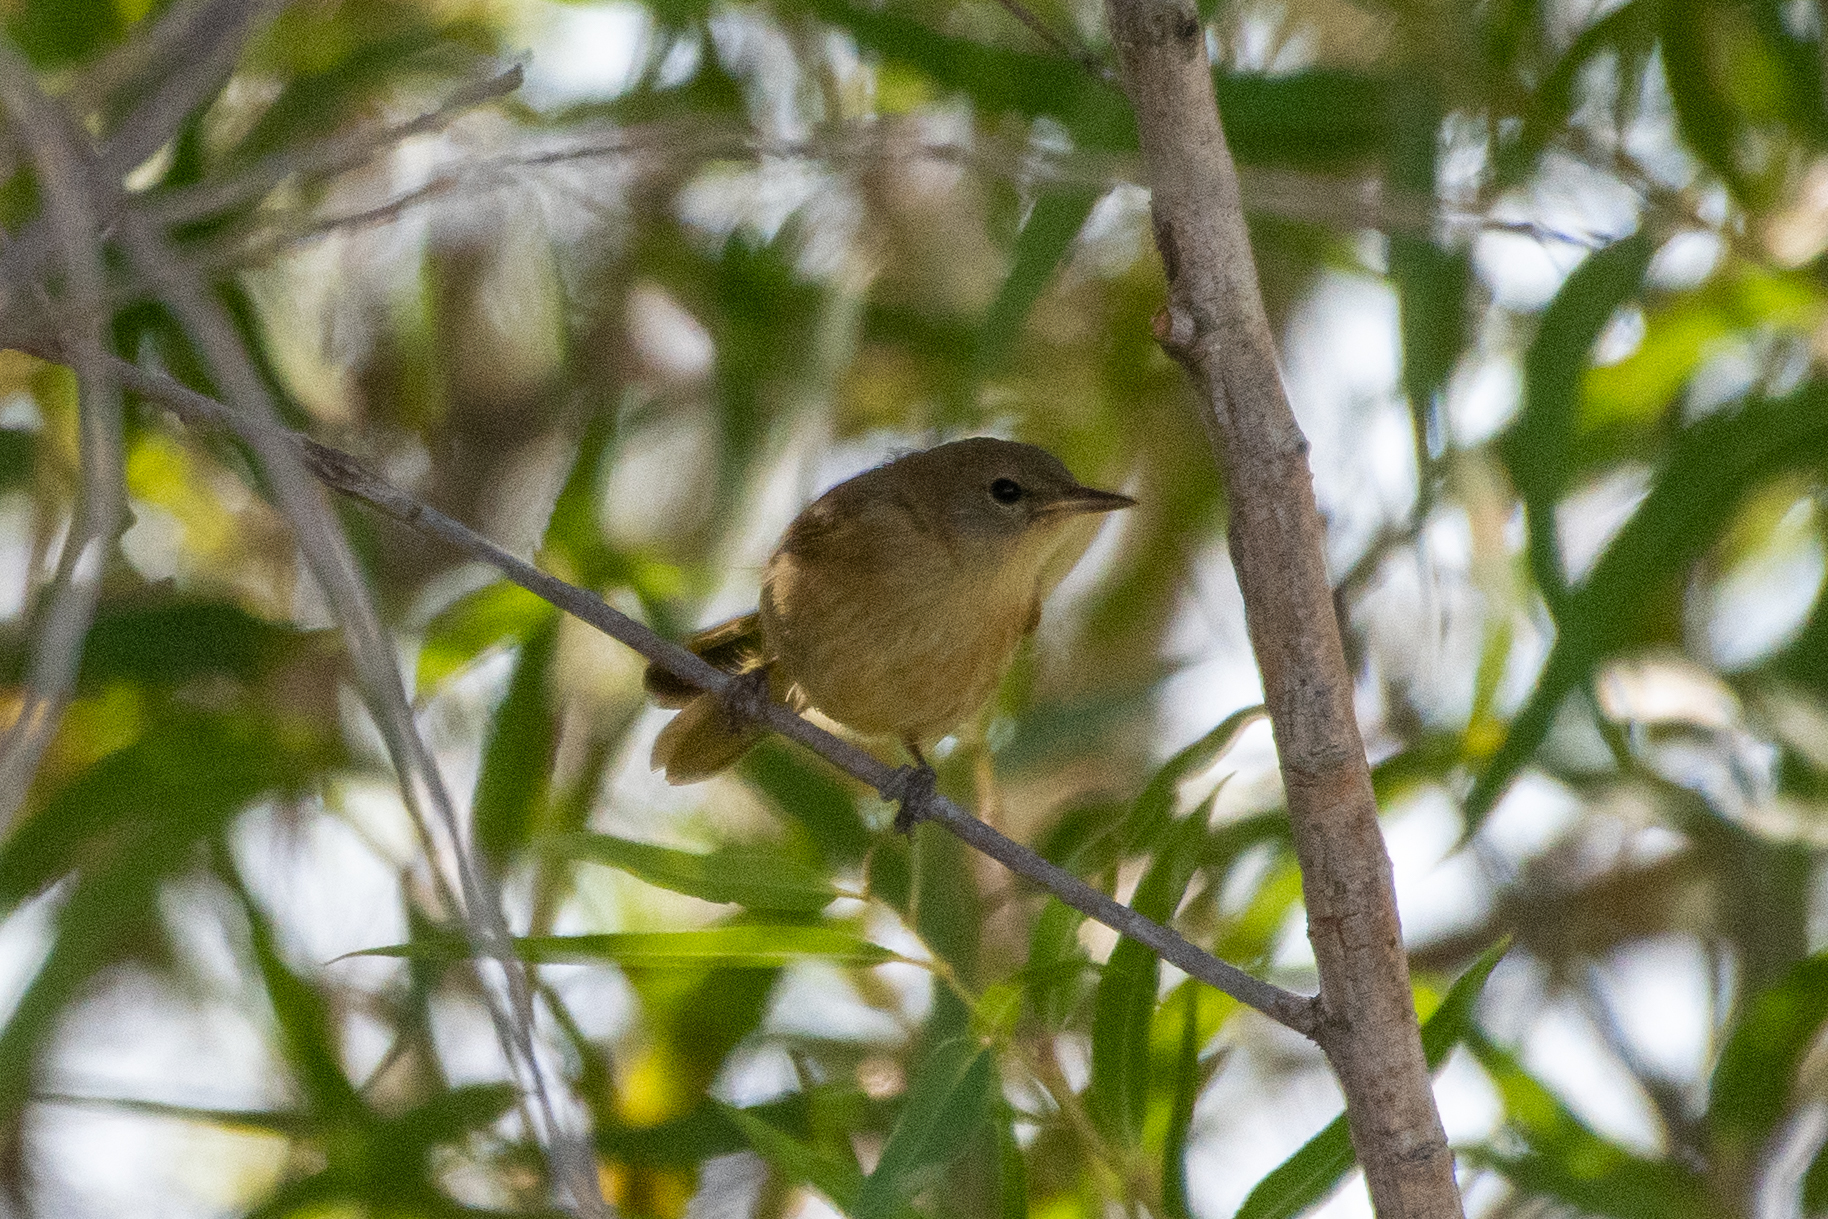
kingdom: Animalia
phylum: Chordata
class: Aves
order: Passeriformes
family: Parulidae
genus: Geothlypis
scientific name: Geothlypis trichas
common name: Common yellowthroat
